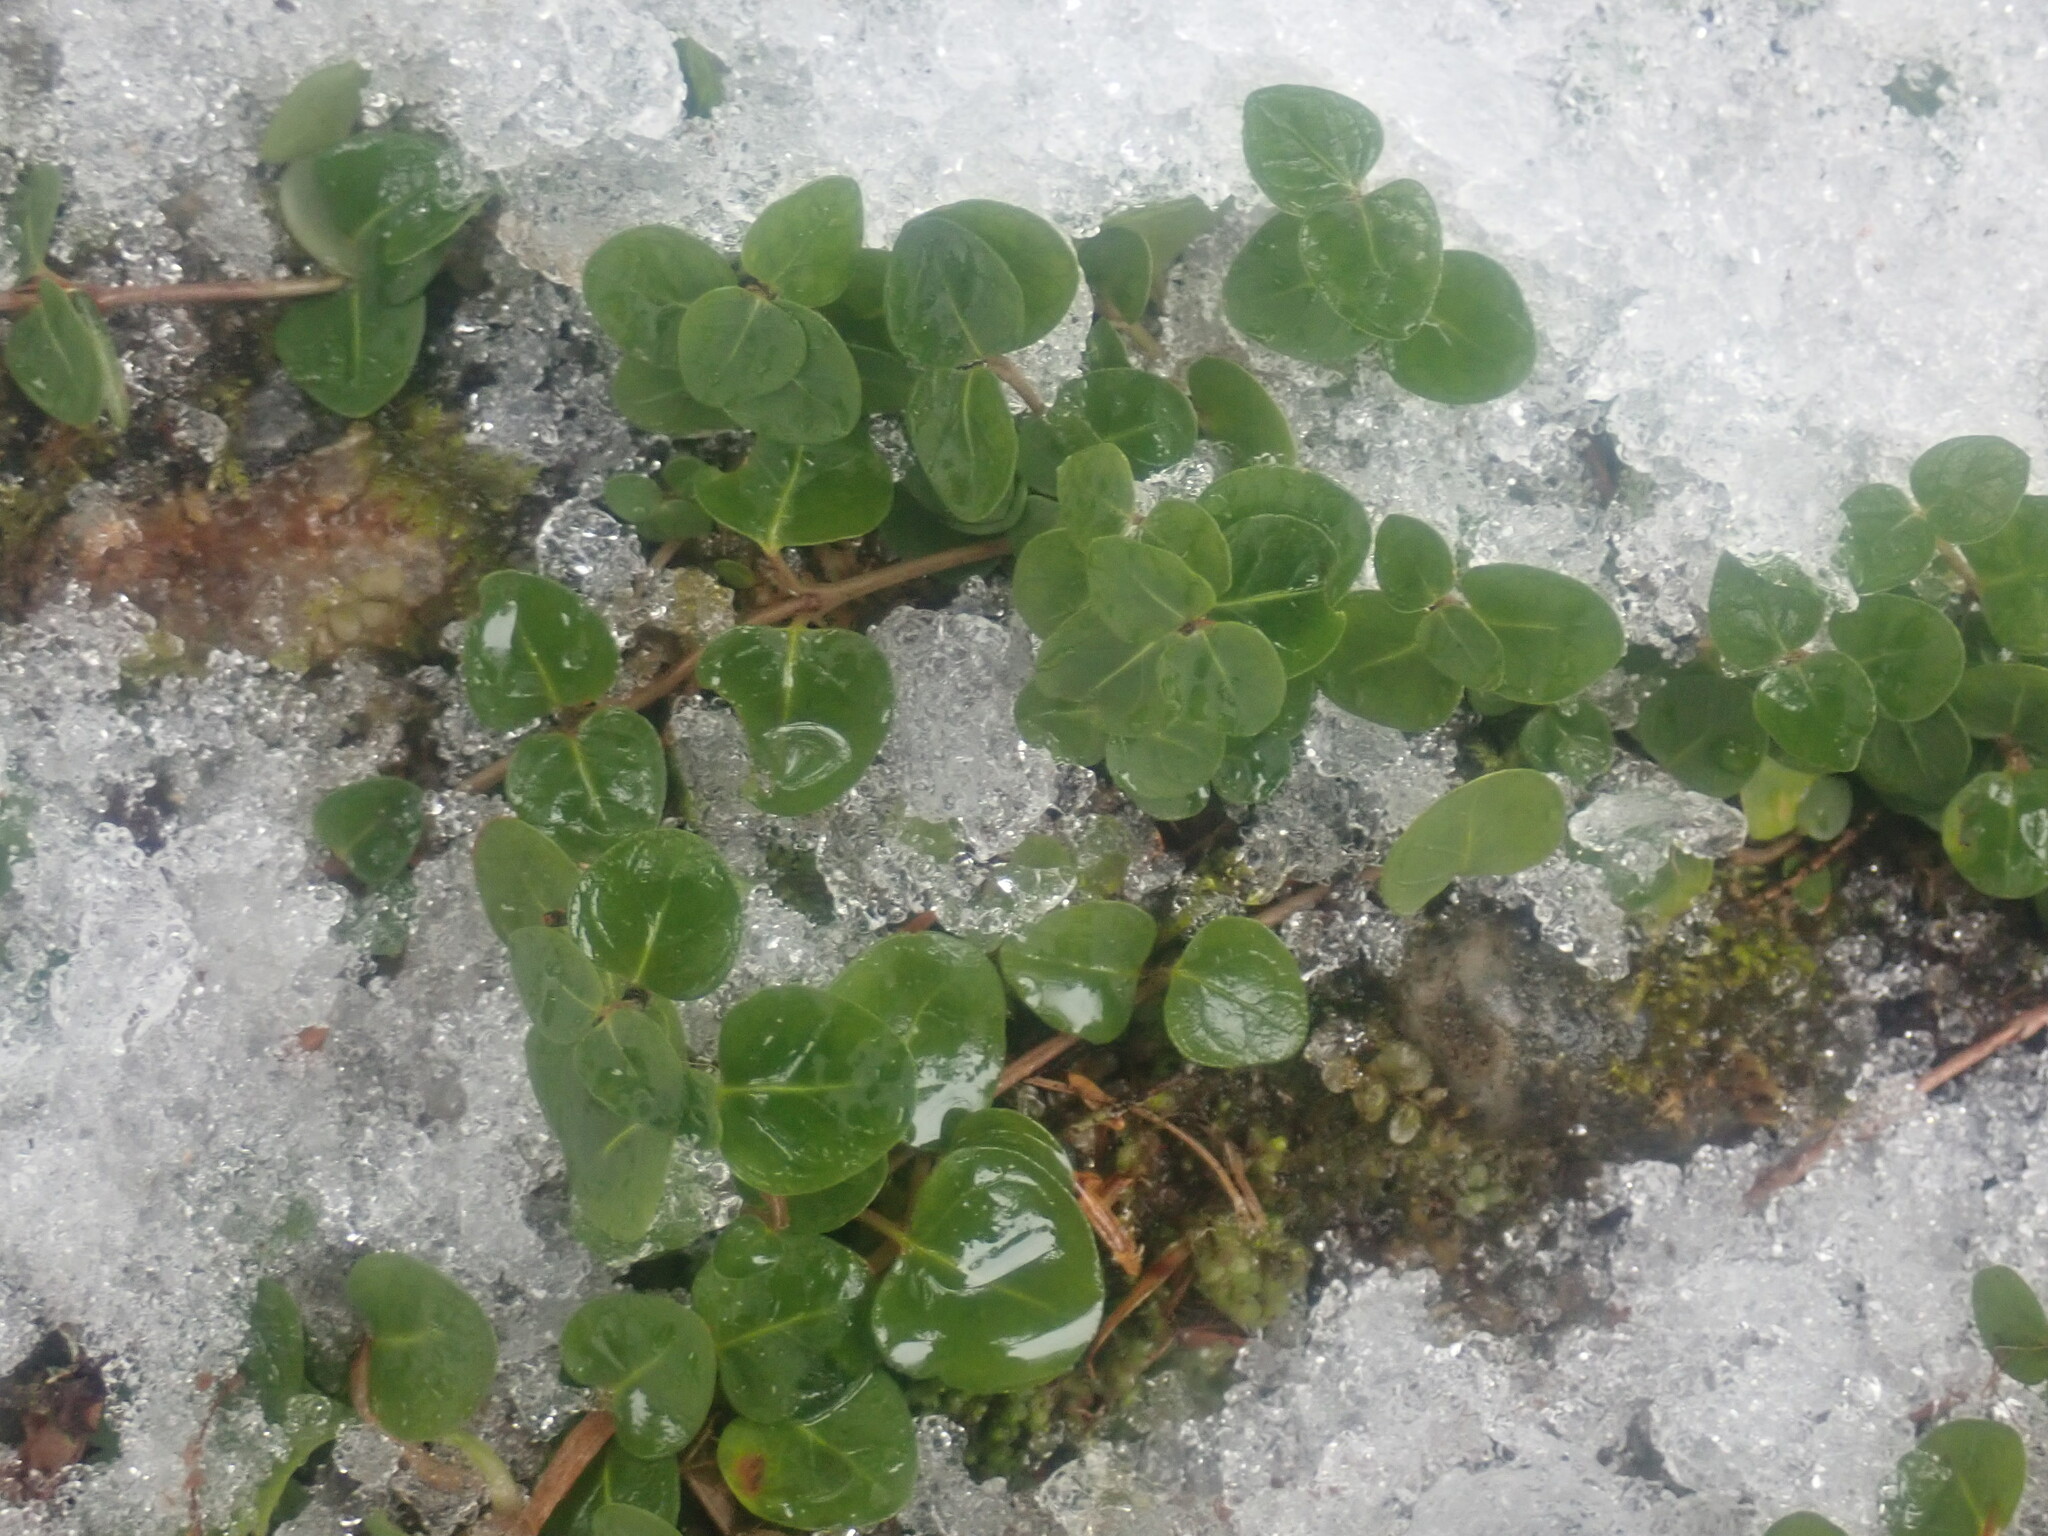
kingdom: Plantae
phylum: Tracheophyta
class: Magnoliopsida
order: Gentianales
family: Rubiaceae
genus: Mitchella
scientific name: Mitchella repens
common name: Partridge-berry
